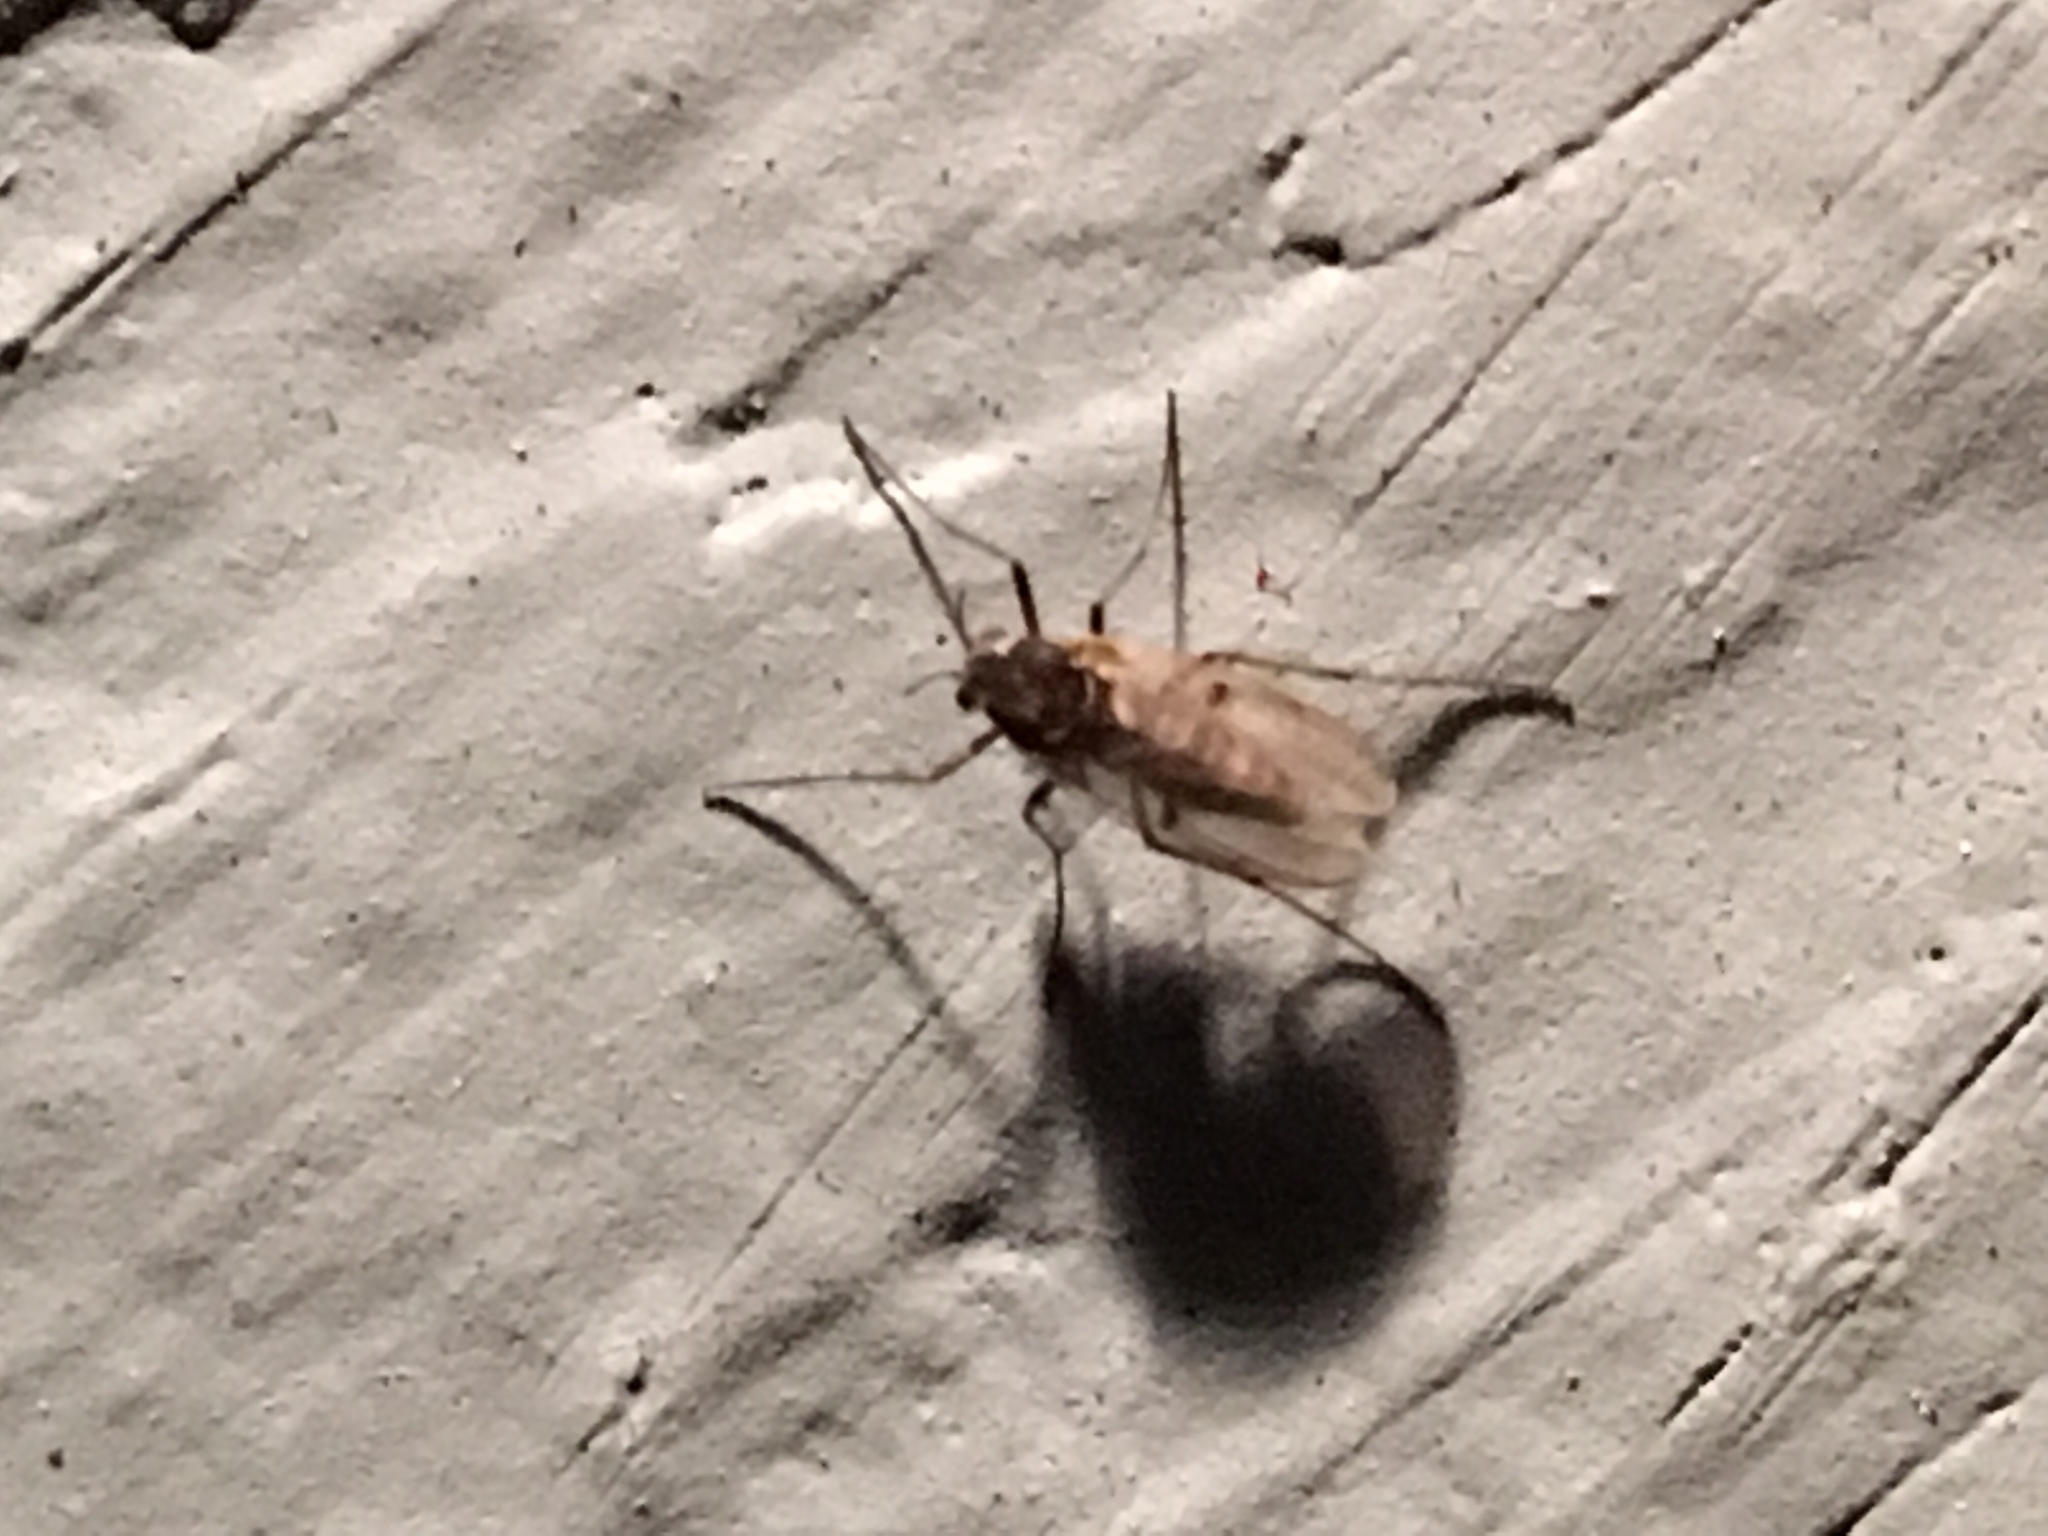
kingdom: Animalia
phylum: Arthropoda
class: Insecta
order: Diptera
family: Chironomidae
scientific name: Chironomidae
